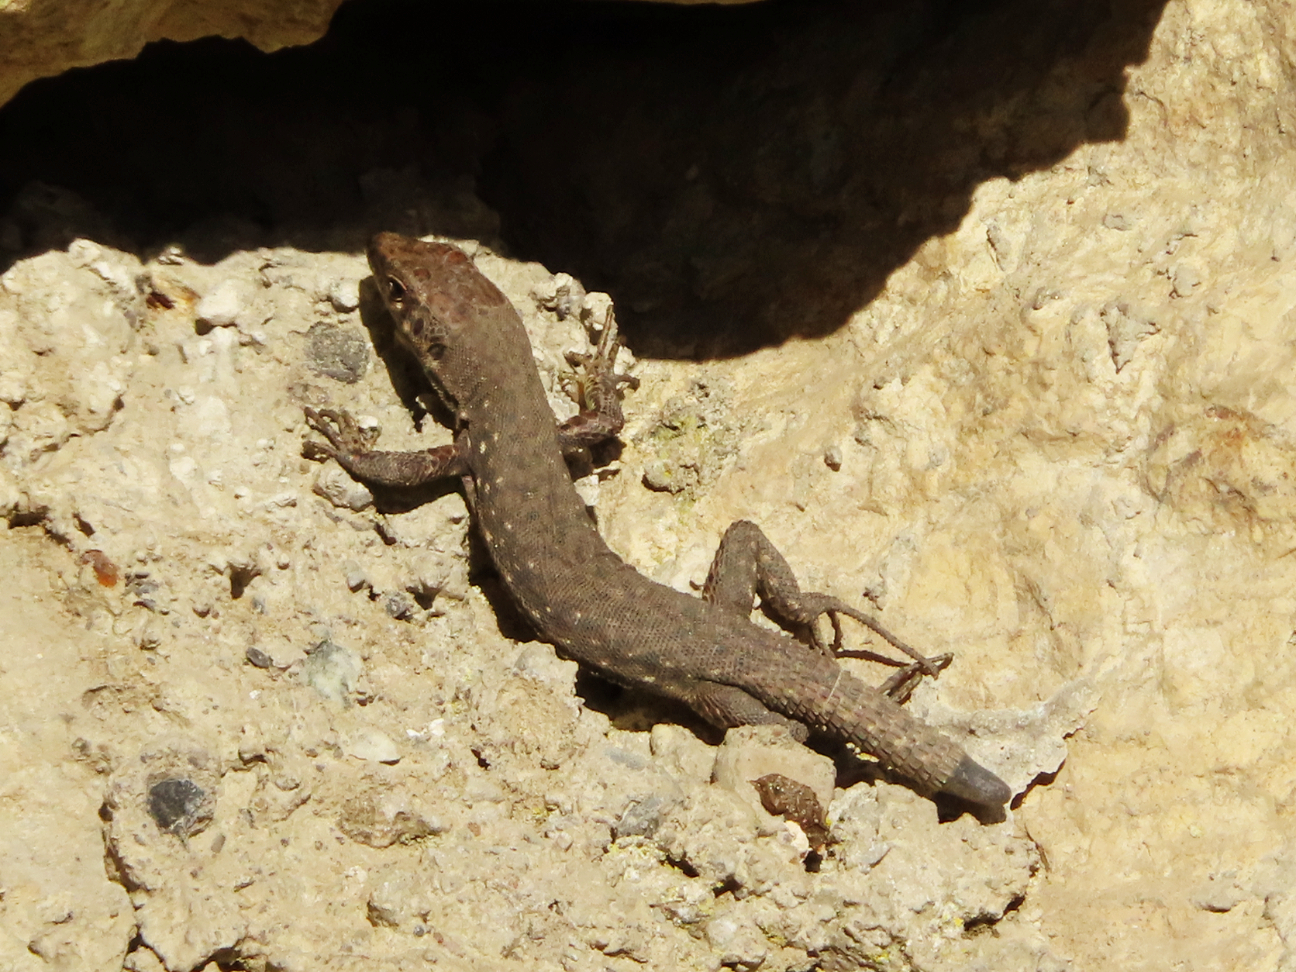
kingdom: Animalia
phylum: Chordata
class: Squamata
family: Lacertidae
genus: Darevskia
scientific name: Darevskia rudis
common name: Spiny-tailed lizard
